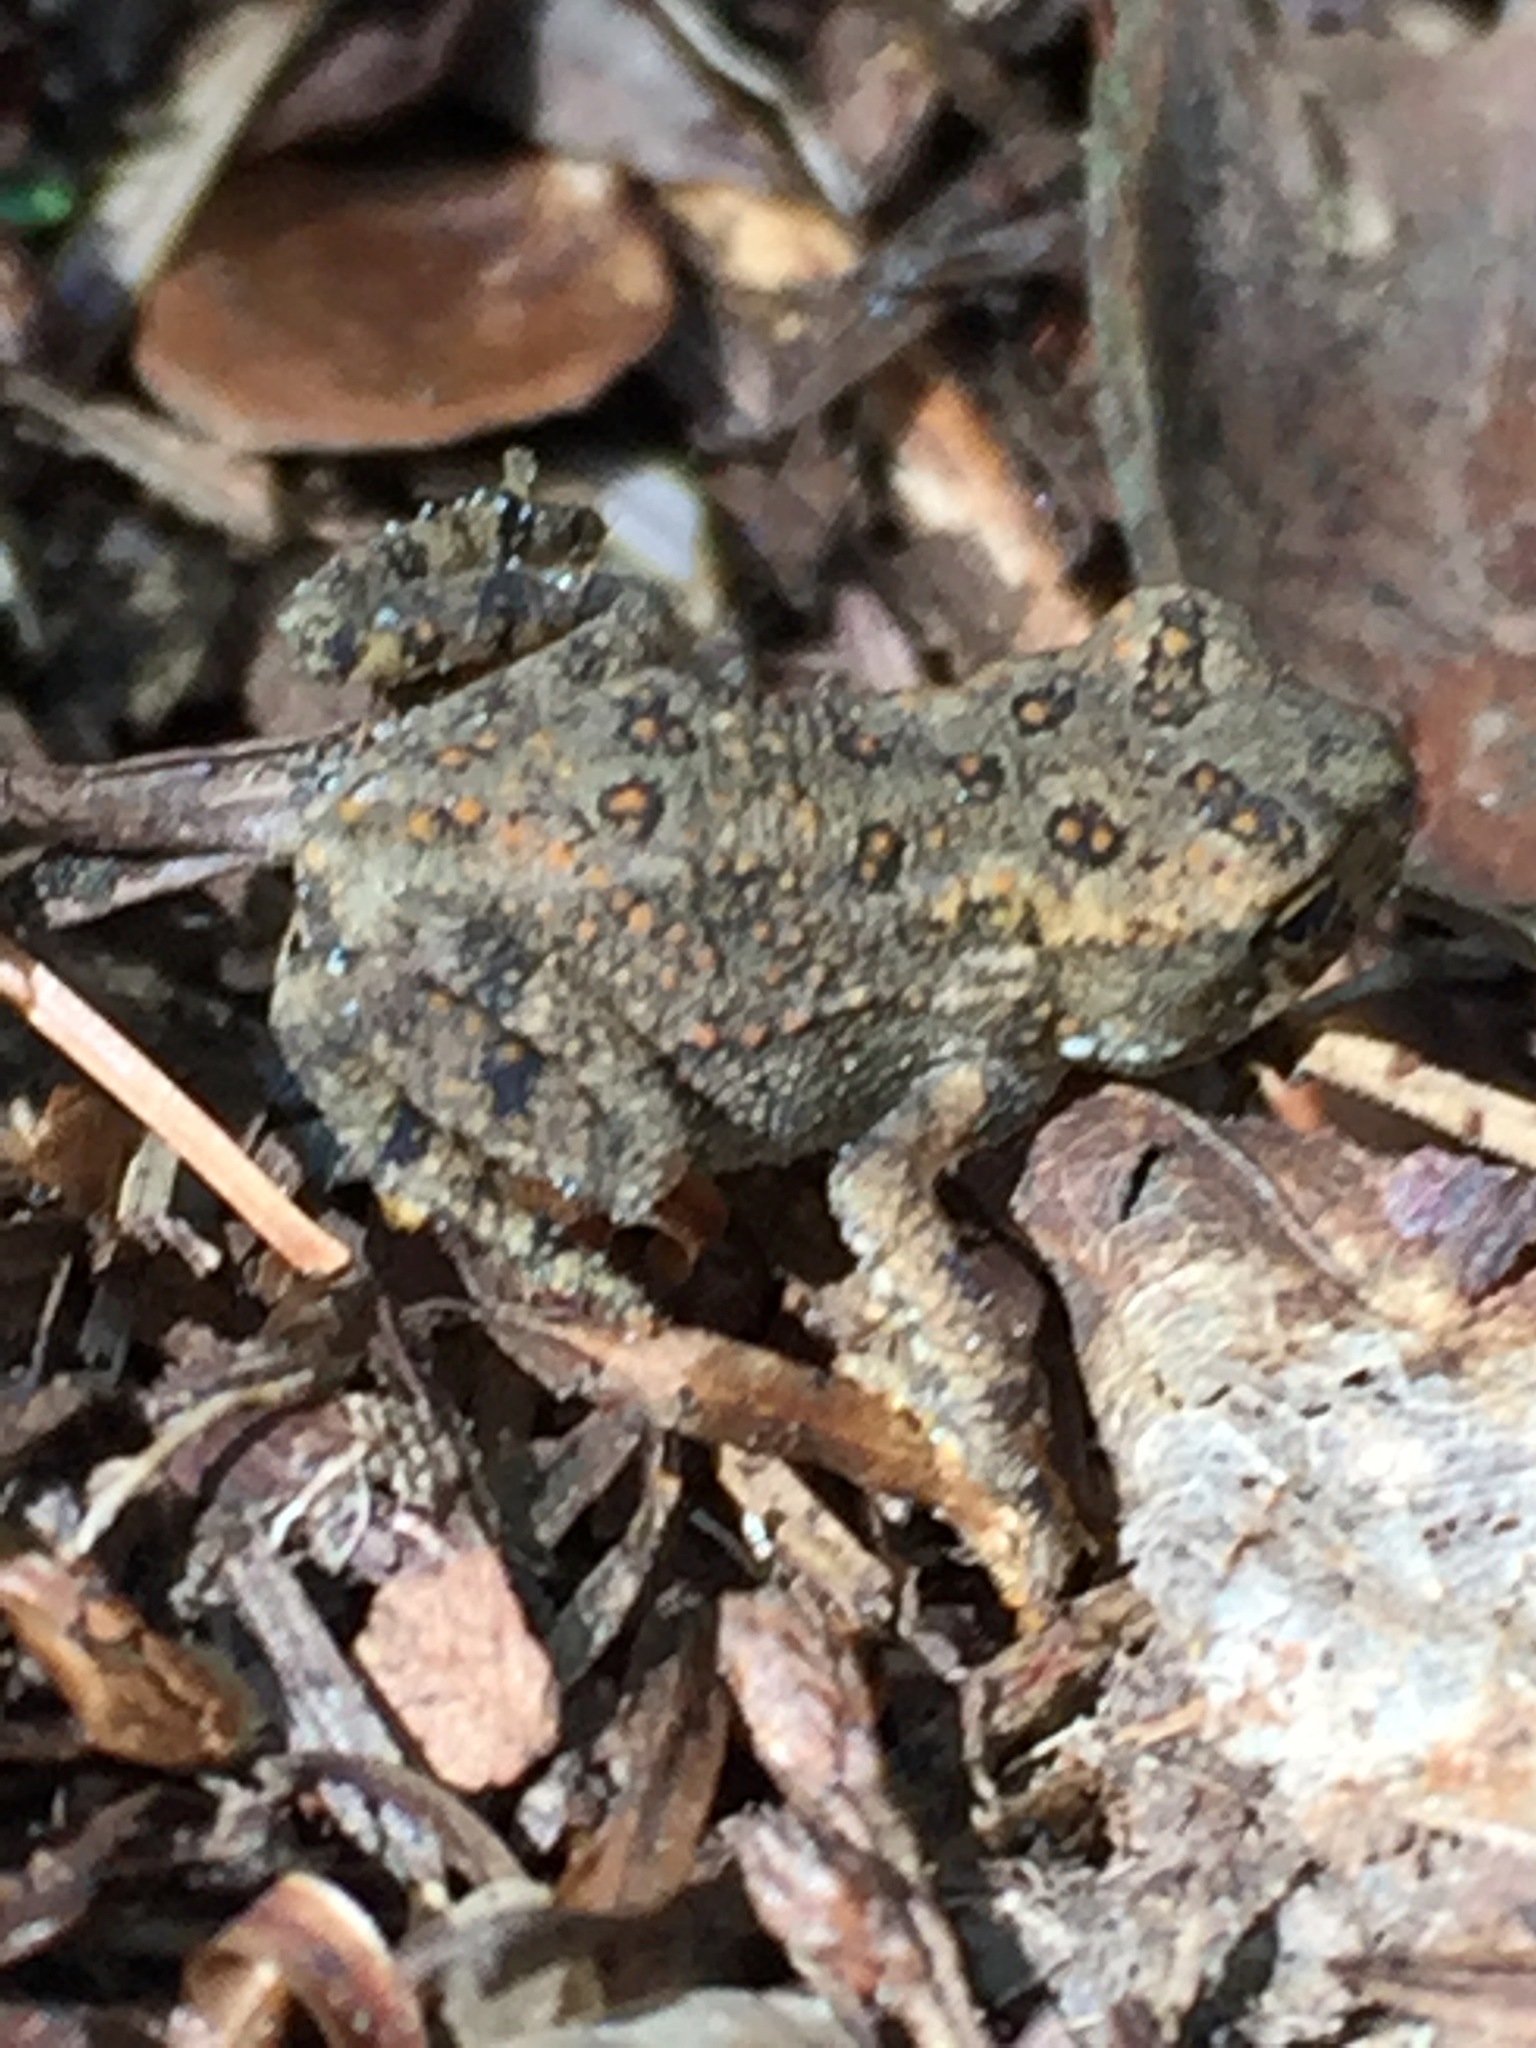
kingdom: Animalia
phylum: Chordata
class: Amphibia
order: Anura
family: Bufonidae
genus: Anaxyrus
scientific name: Anaxyrus americanus
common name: American toad
